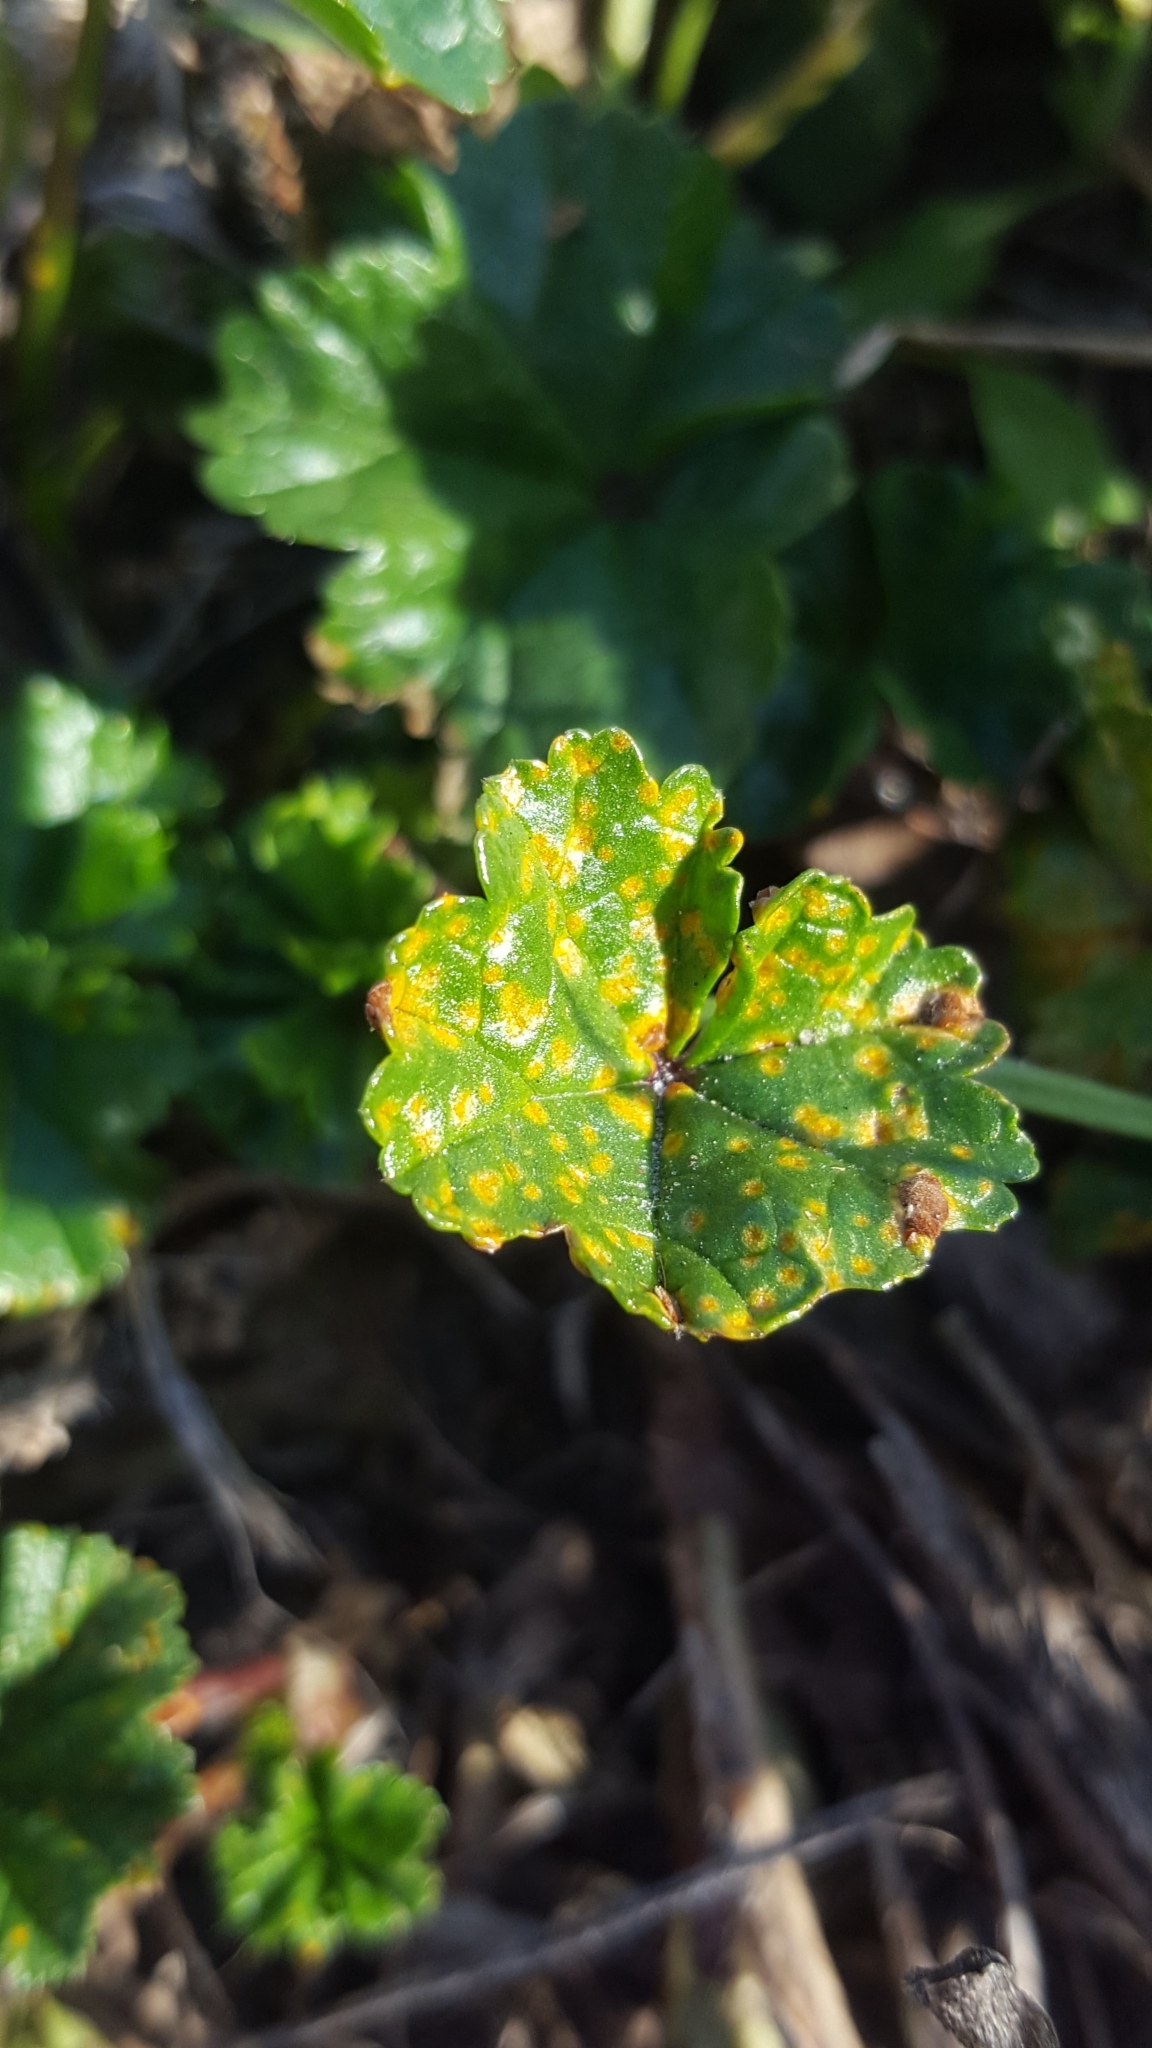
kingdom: Fungi
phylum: Basidiomycota
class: Pucciniomycetes
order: Pucciniales
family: Pucciniaceae
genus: Puccinia
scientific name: Puccinia malvacearum
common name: Hollyhock rust
